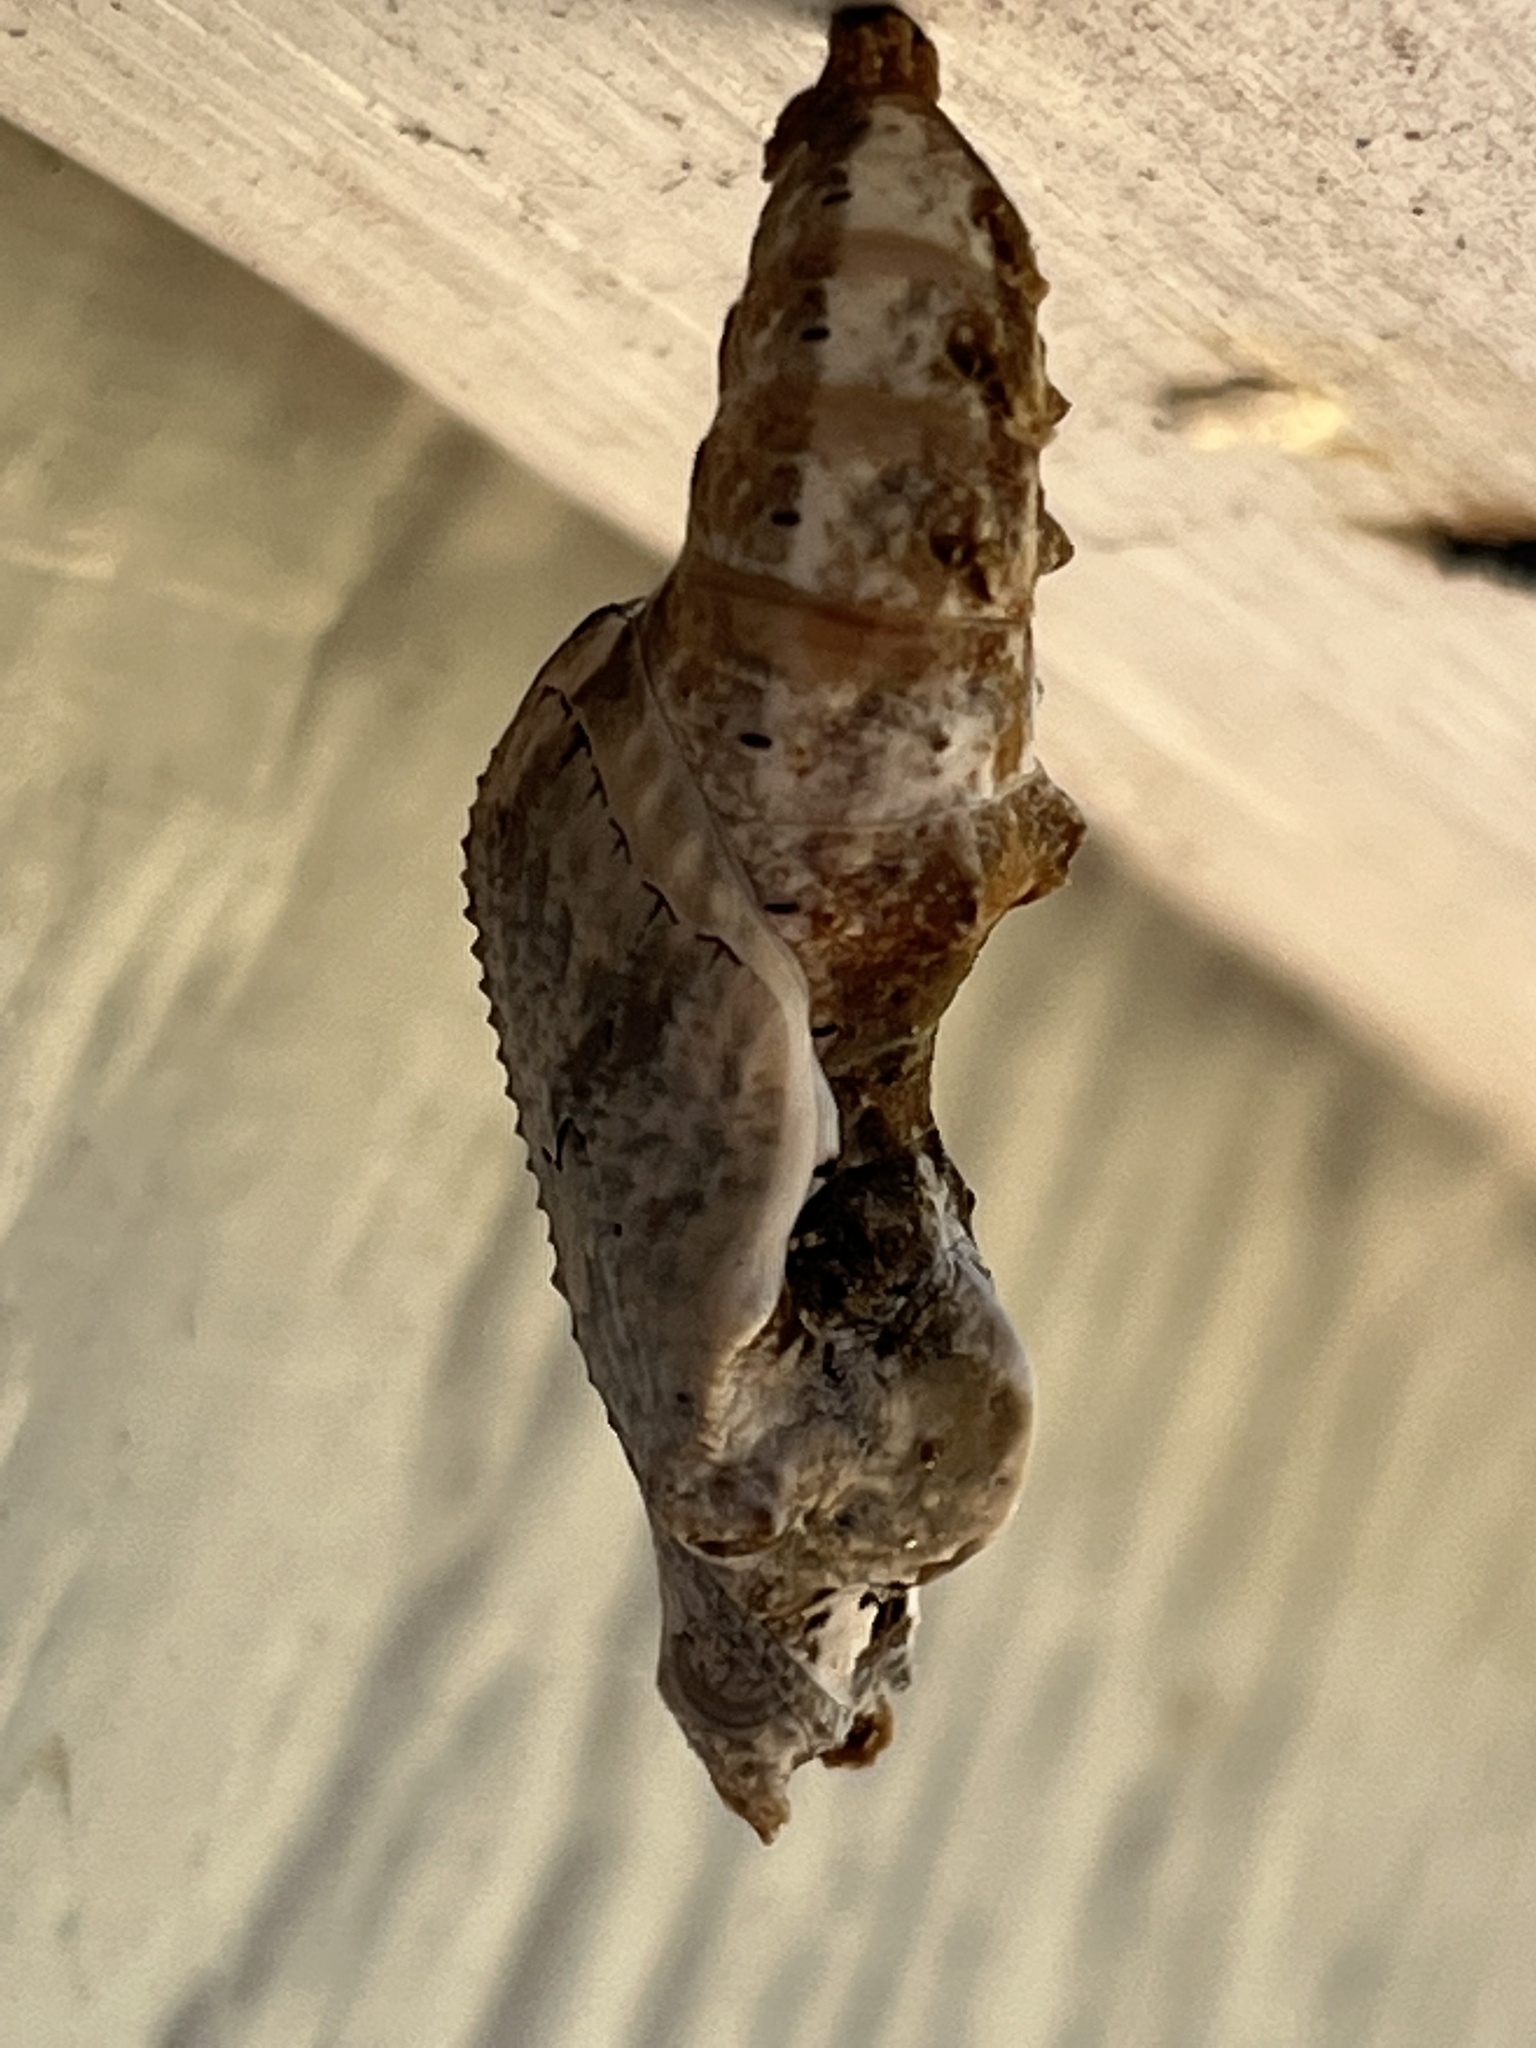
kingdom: Animalia
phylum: Arthropoda
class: Insecta
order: Lepidoptera
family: Nymphalidae
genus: Dione
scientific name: Dione vanillae
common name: Gulf fritillary
